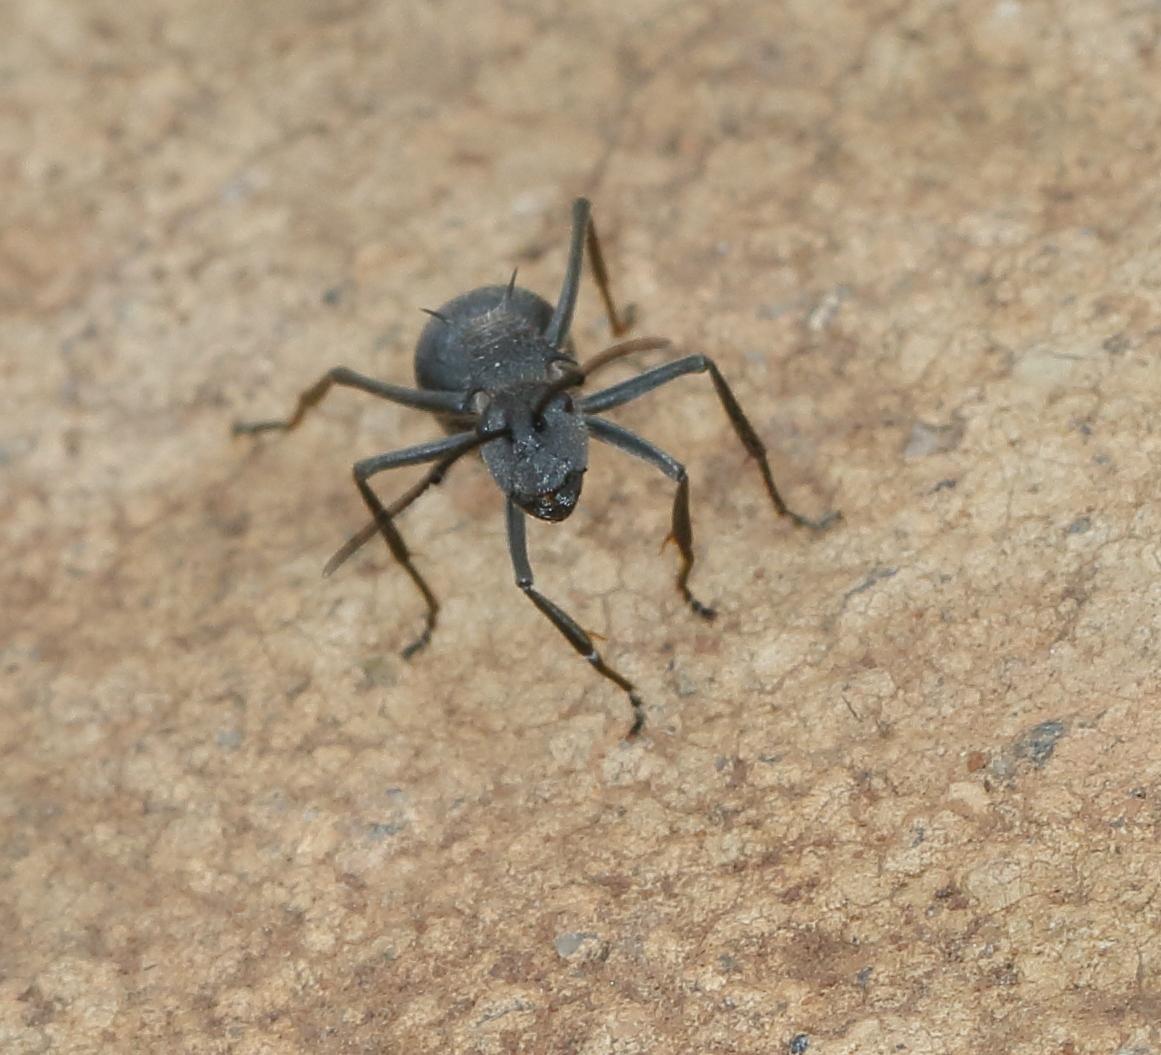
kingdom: Animalia
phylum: Arthropoda
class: Insecta
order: Hymenoptera
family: Formicidae
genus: Polyrhachis
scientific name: Polyrhachis schistacea
